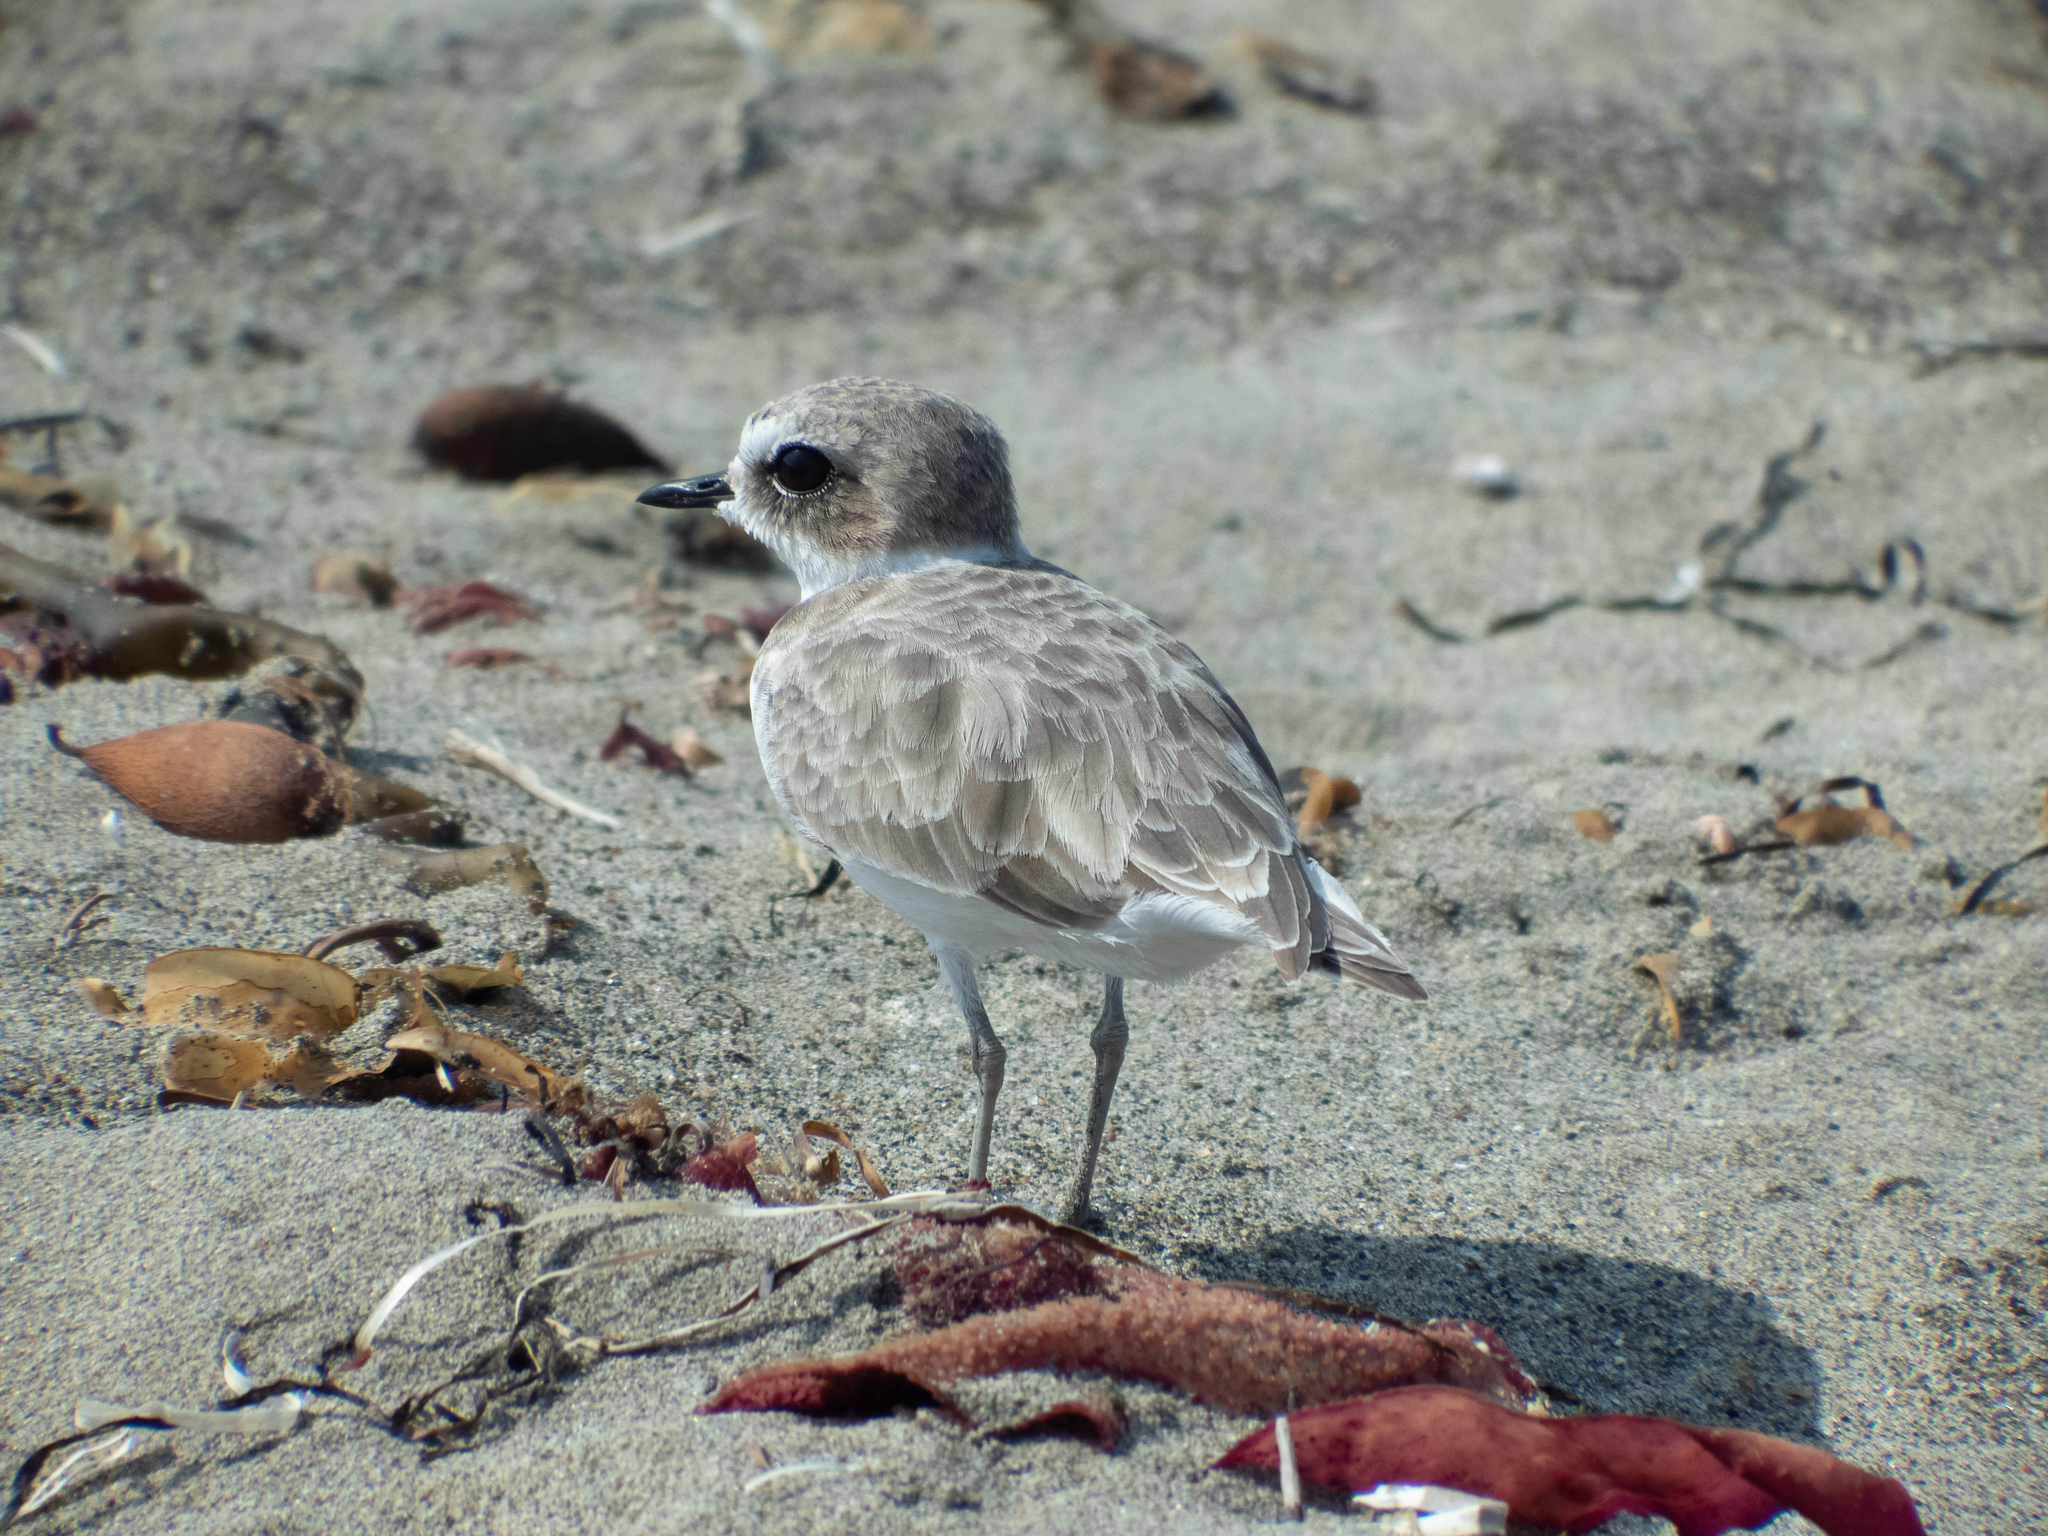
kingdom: Animalia
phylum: Chordata
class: Aves
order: Charadriiformes
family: Charadriidae
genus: Anarhynchus
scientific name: Anarhynchus
